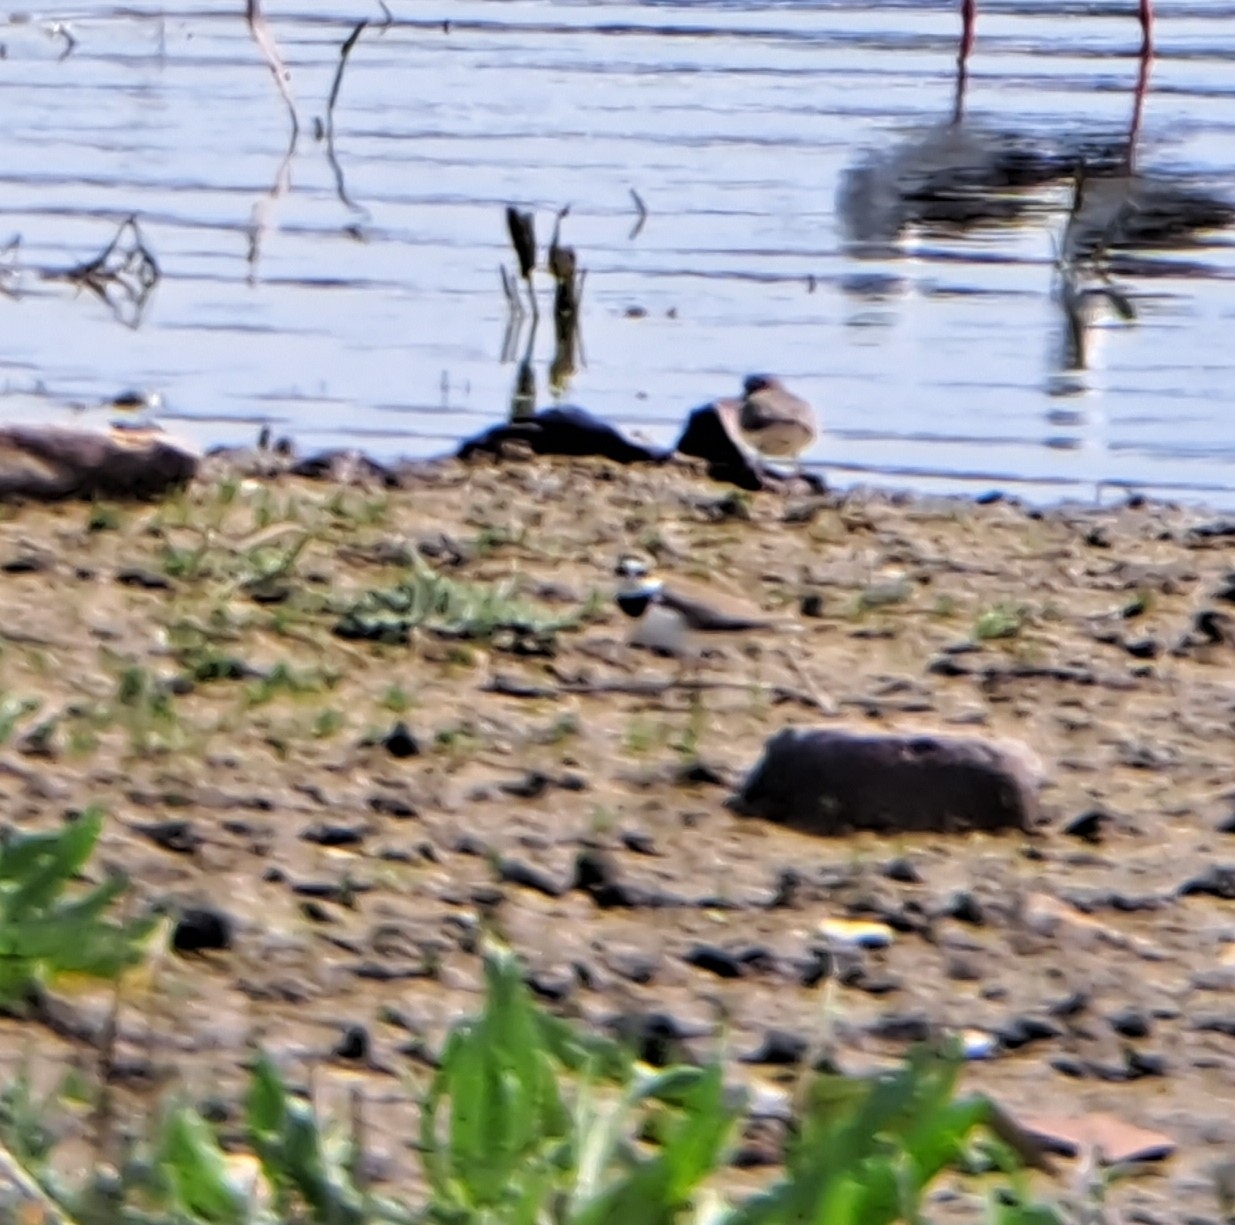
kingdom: Animalia
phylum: Chordata
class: Aves
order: Charadriiformes
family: Charadriidae
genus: Charadrius
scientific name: Charadrius dubius
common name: Little ringed plover
